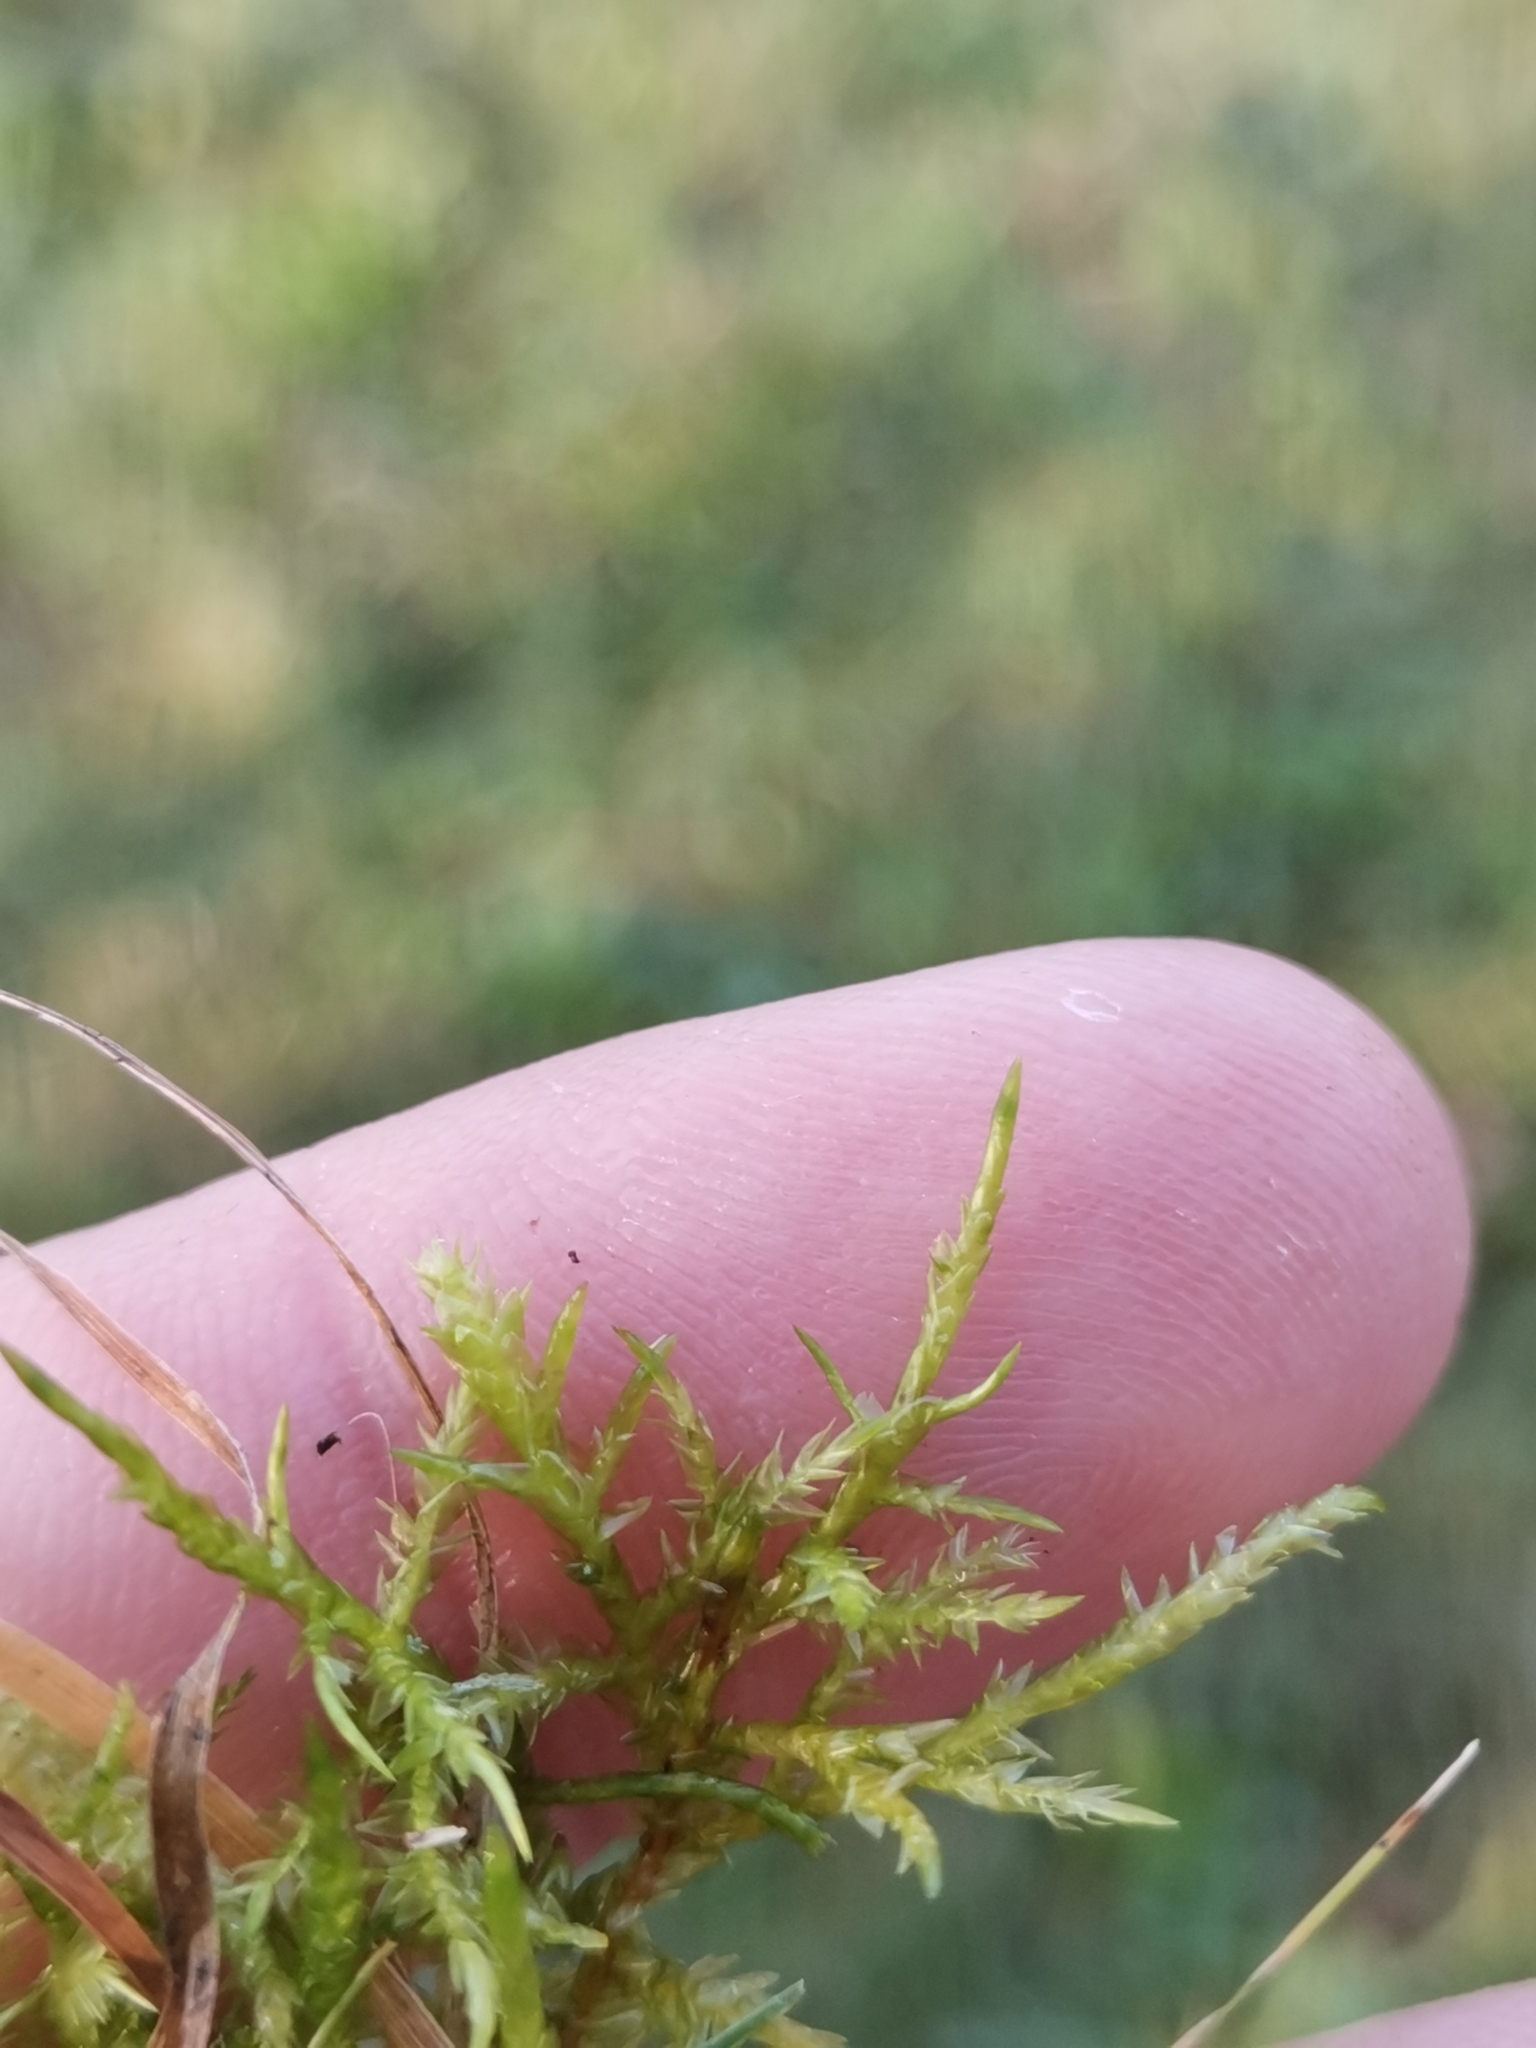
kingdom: Plantae
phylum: Bryophyta
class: Bryopsida
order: Hypnales
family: Pylaisiaceae
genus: Calliergonella
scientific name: Calliergonella cuspidata
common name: Common large wetland moss
